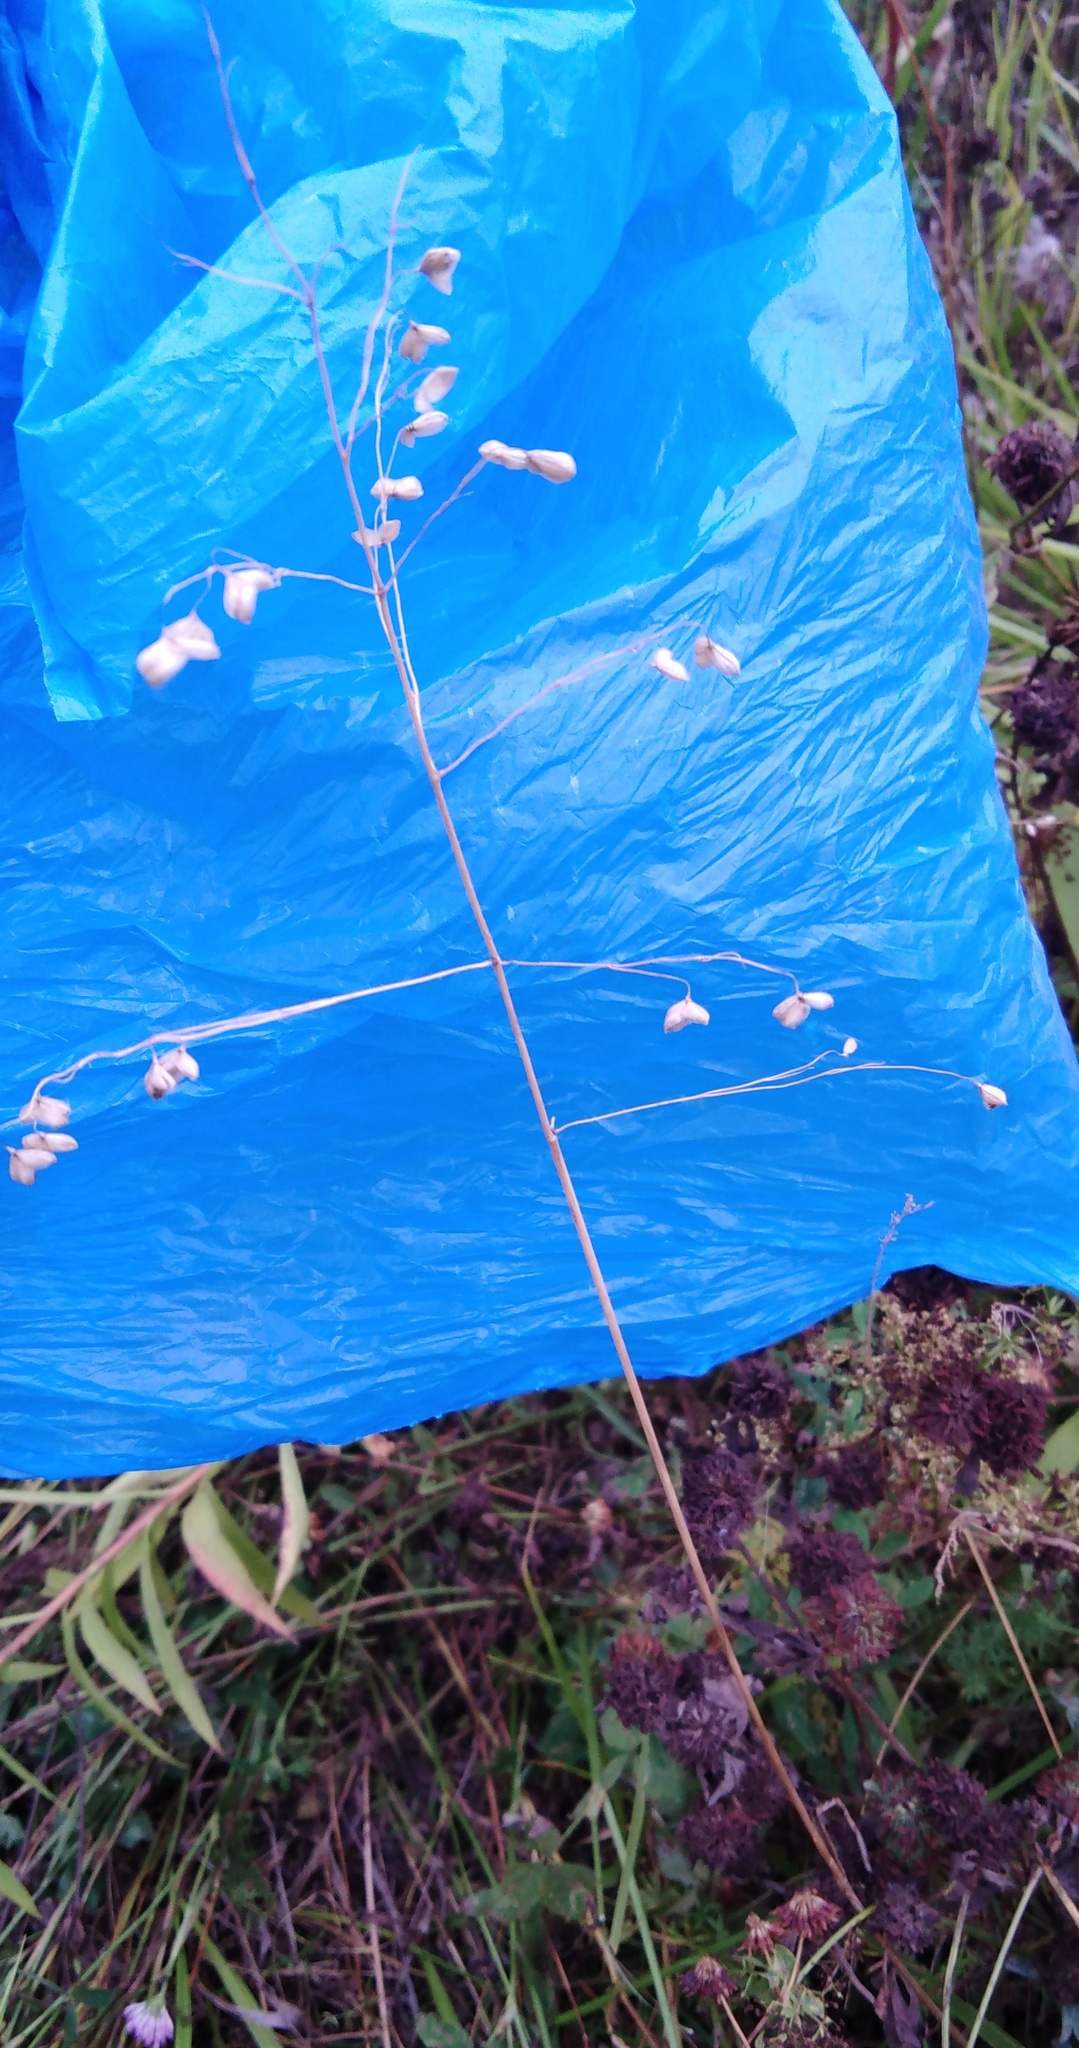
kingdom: Plantae
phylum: Tracheophyta
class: Liliopsida
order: Poales
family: Poaceae
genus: Briza
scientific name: Briza media
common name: Quaking grass
